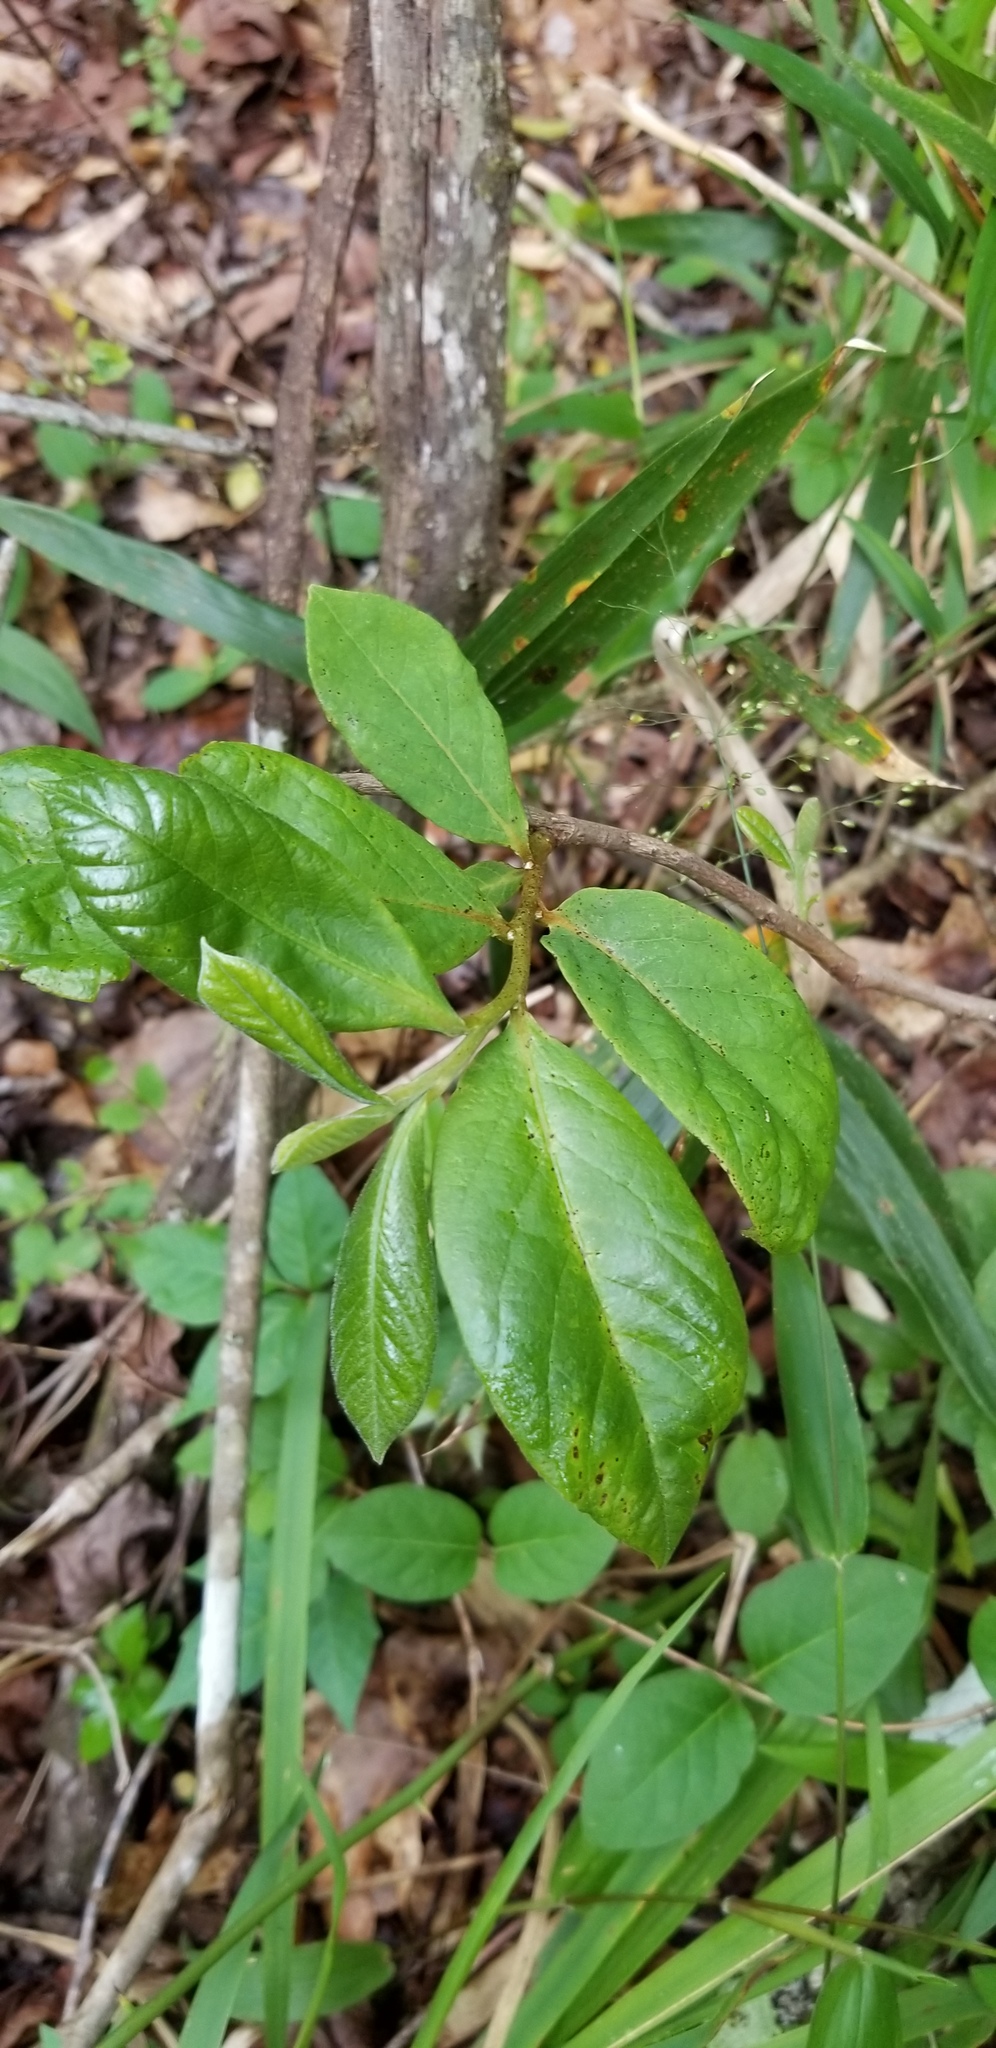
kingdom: Plantae
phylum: Tracheophyta
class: Magnoliopsida
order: Magnoliales
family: Annonaceae
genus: Asimina
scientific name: Asimina parviflora
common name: Dwarf pawpaw
